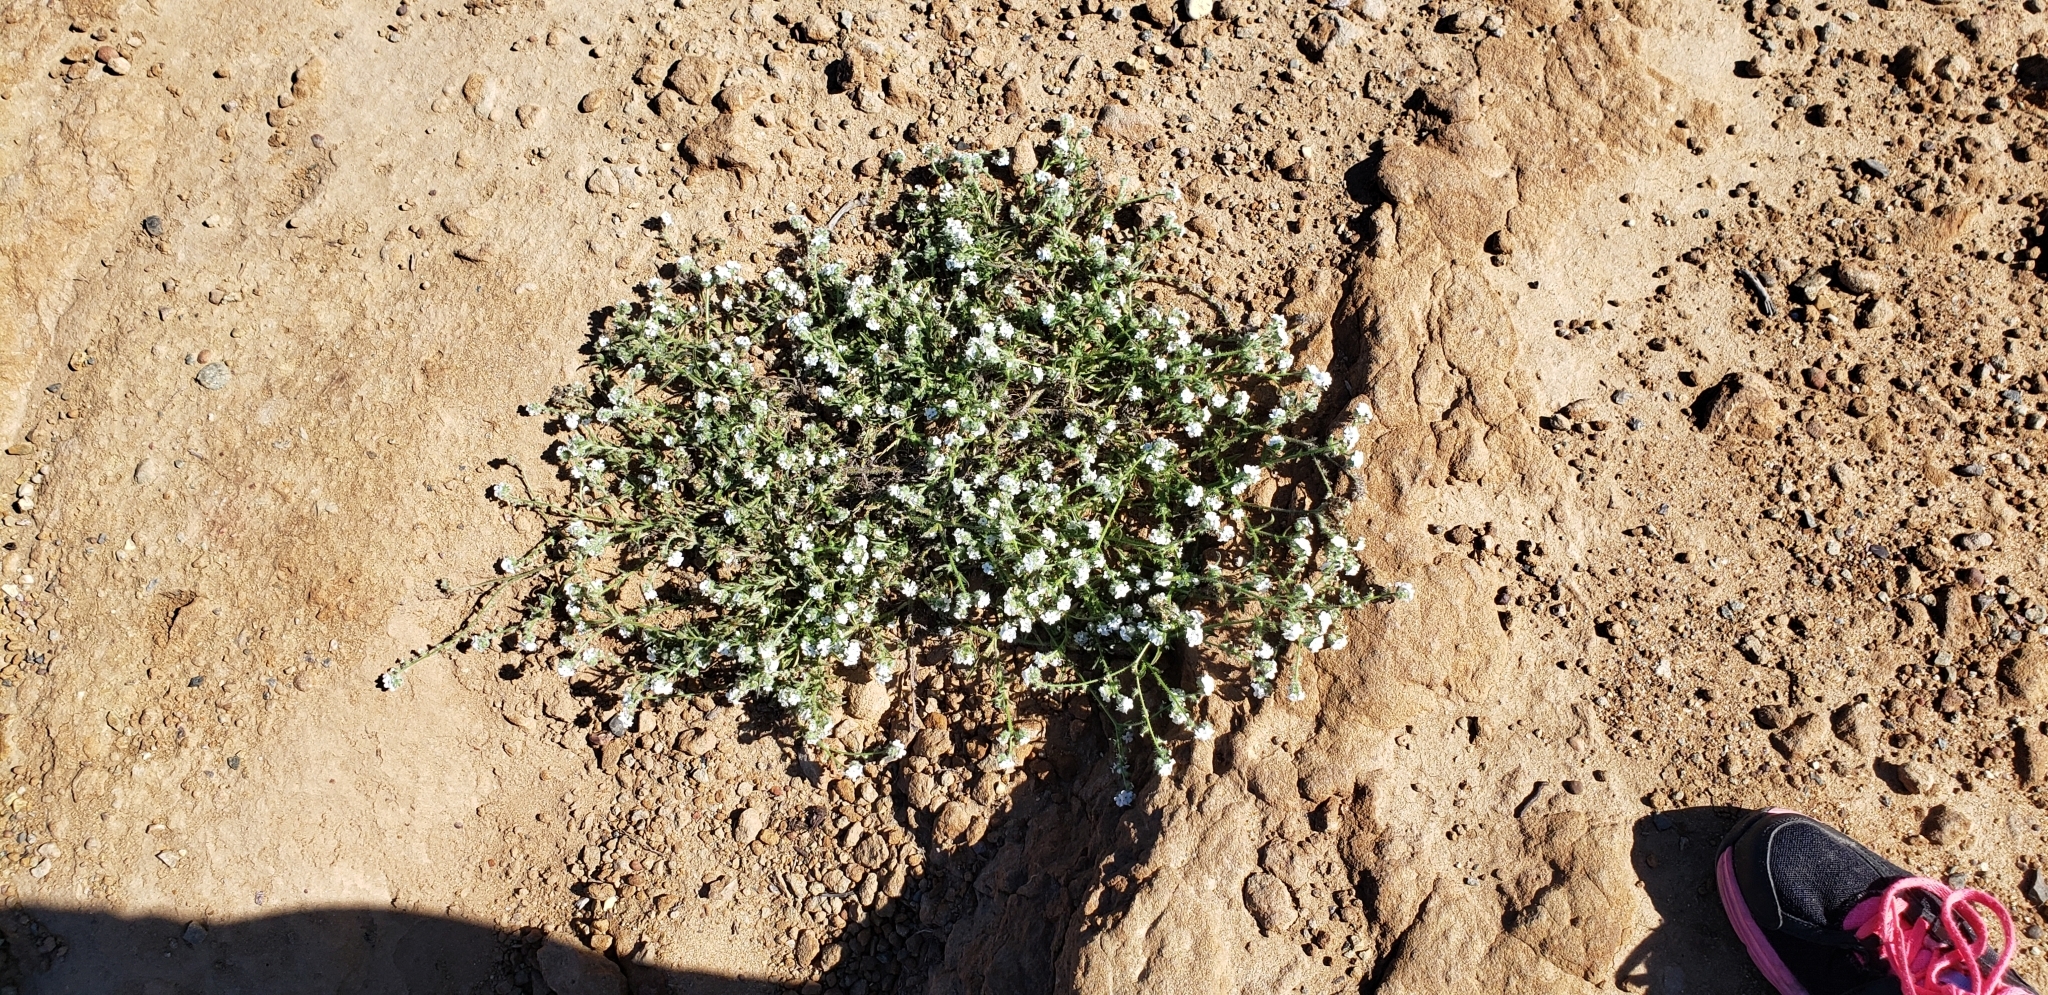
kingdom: Plantae
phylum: Tracheophyta
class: Magnoliopsida
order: Boraginales
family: Boraginaceae
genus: Cryptantha
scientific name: Cryptantha intermedia
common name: Clearwater cryptantha
